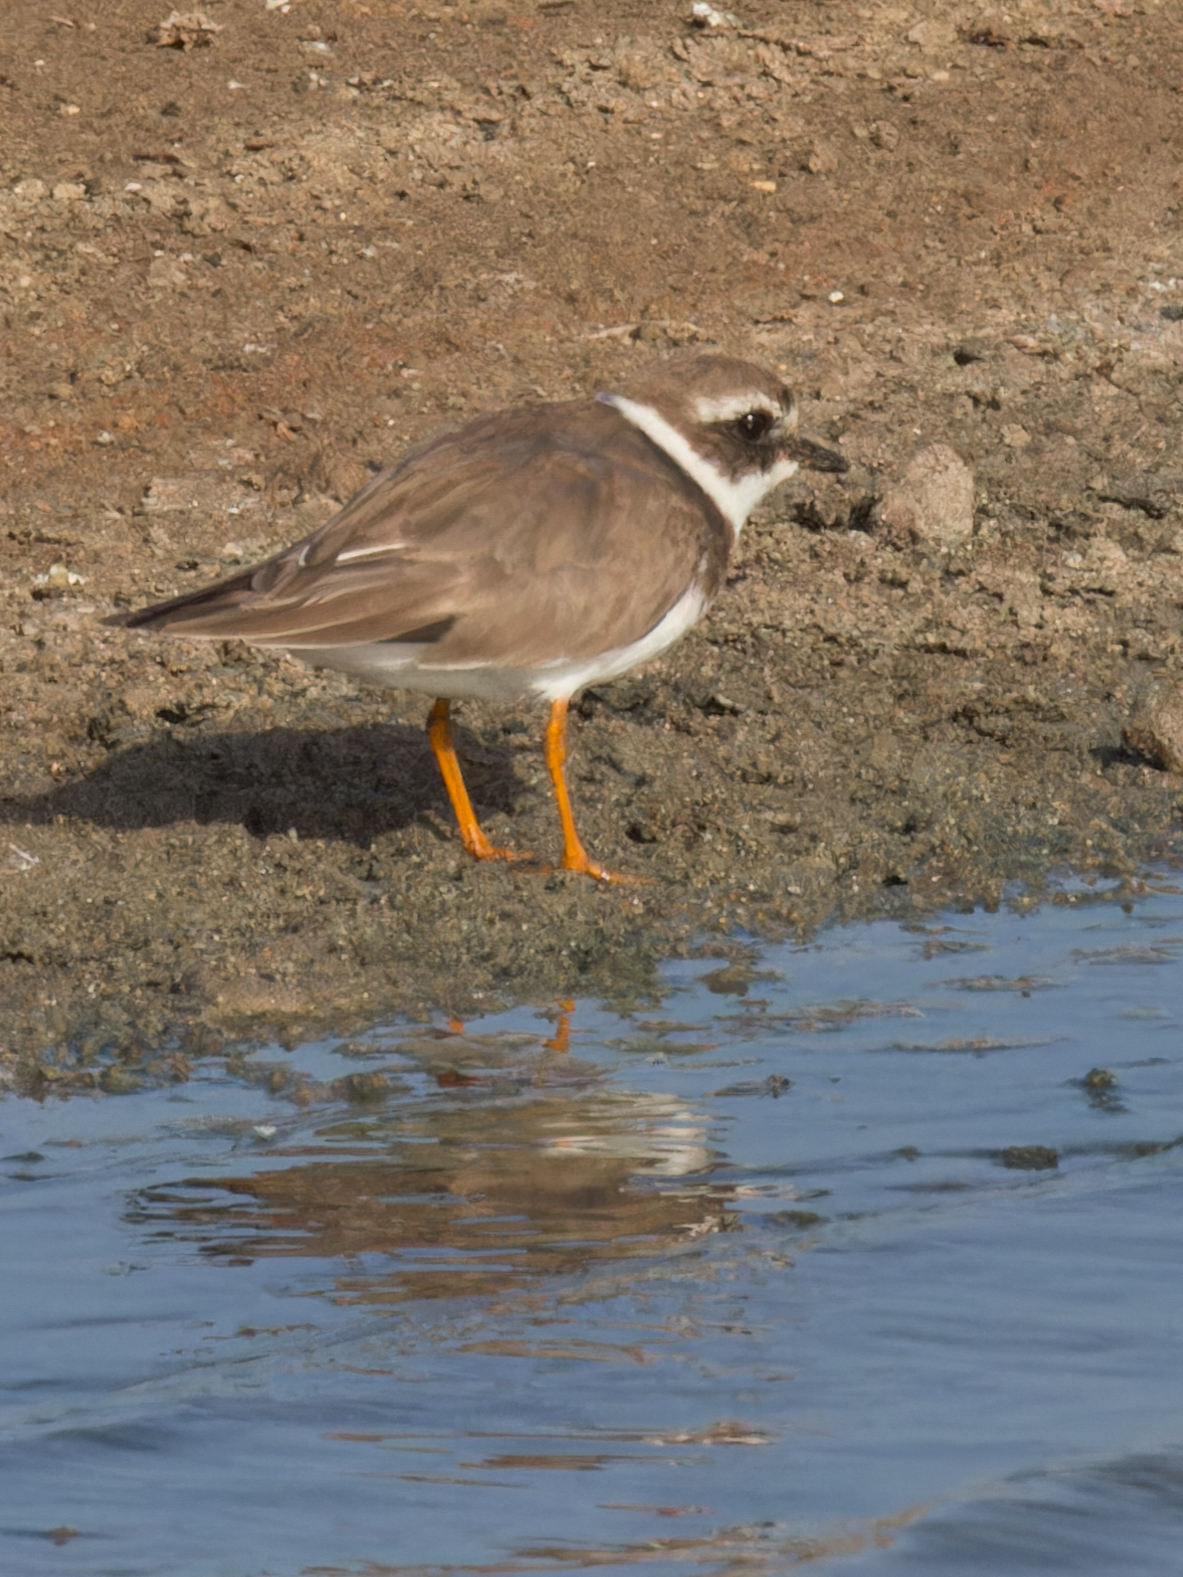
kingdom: Animalia
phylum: Chordata
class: Aves
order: Charadriiformes
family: Charadriidae
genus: Charadrius
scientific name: Charadrius hiaticula
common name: Common ringed plover
